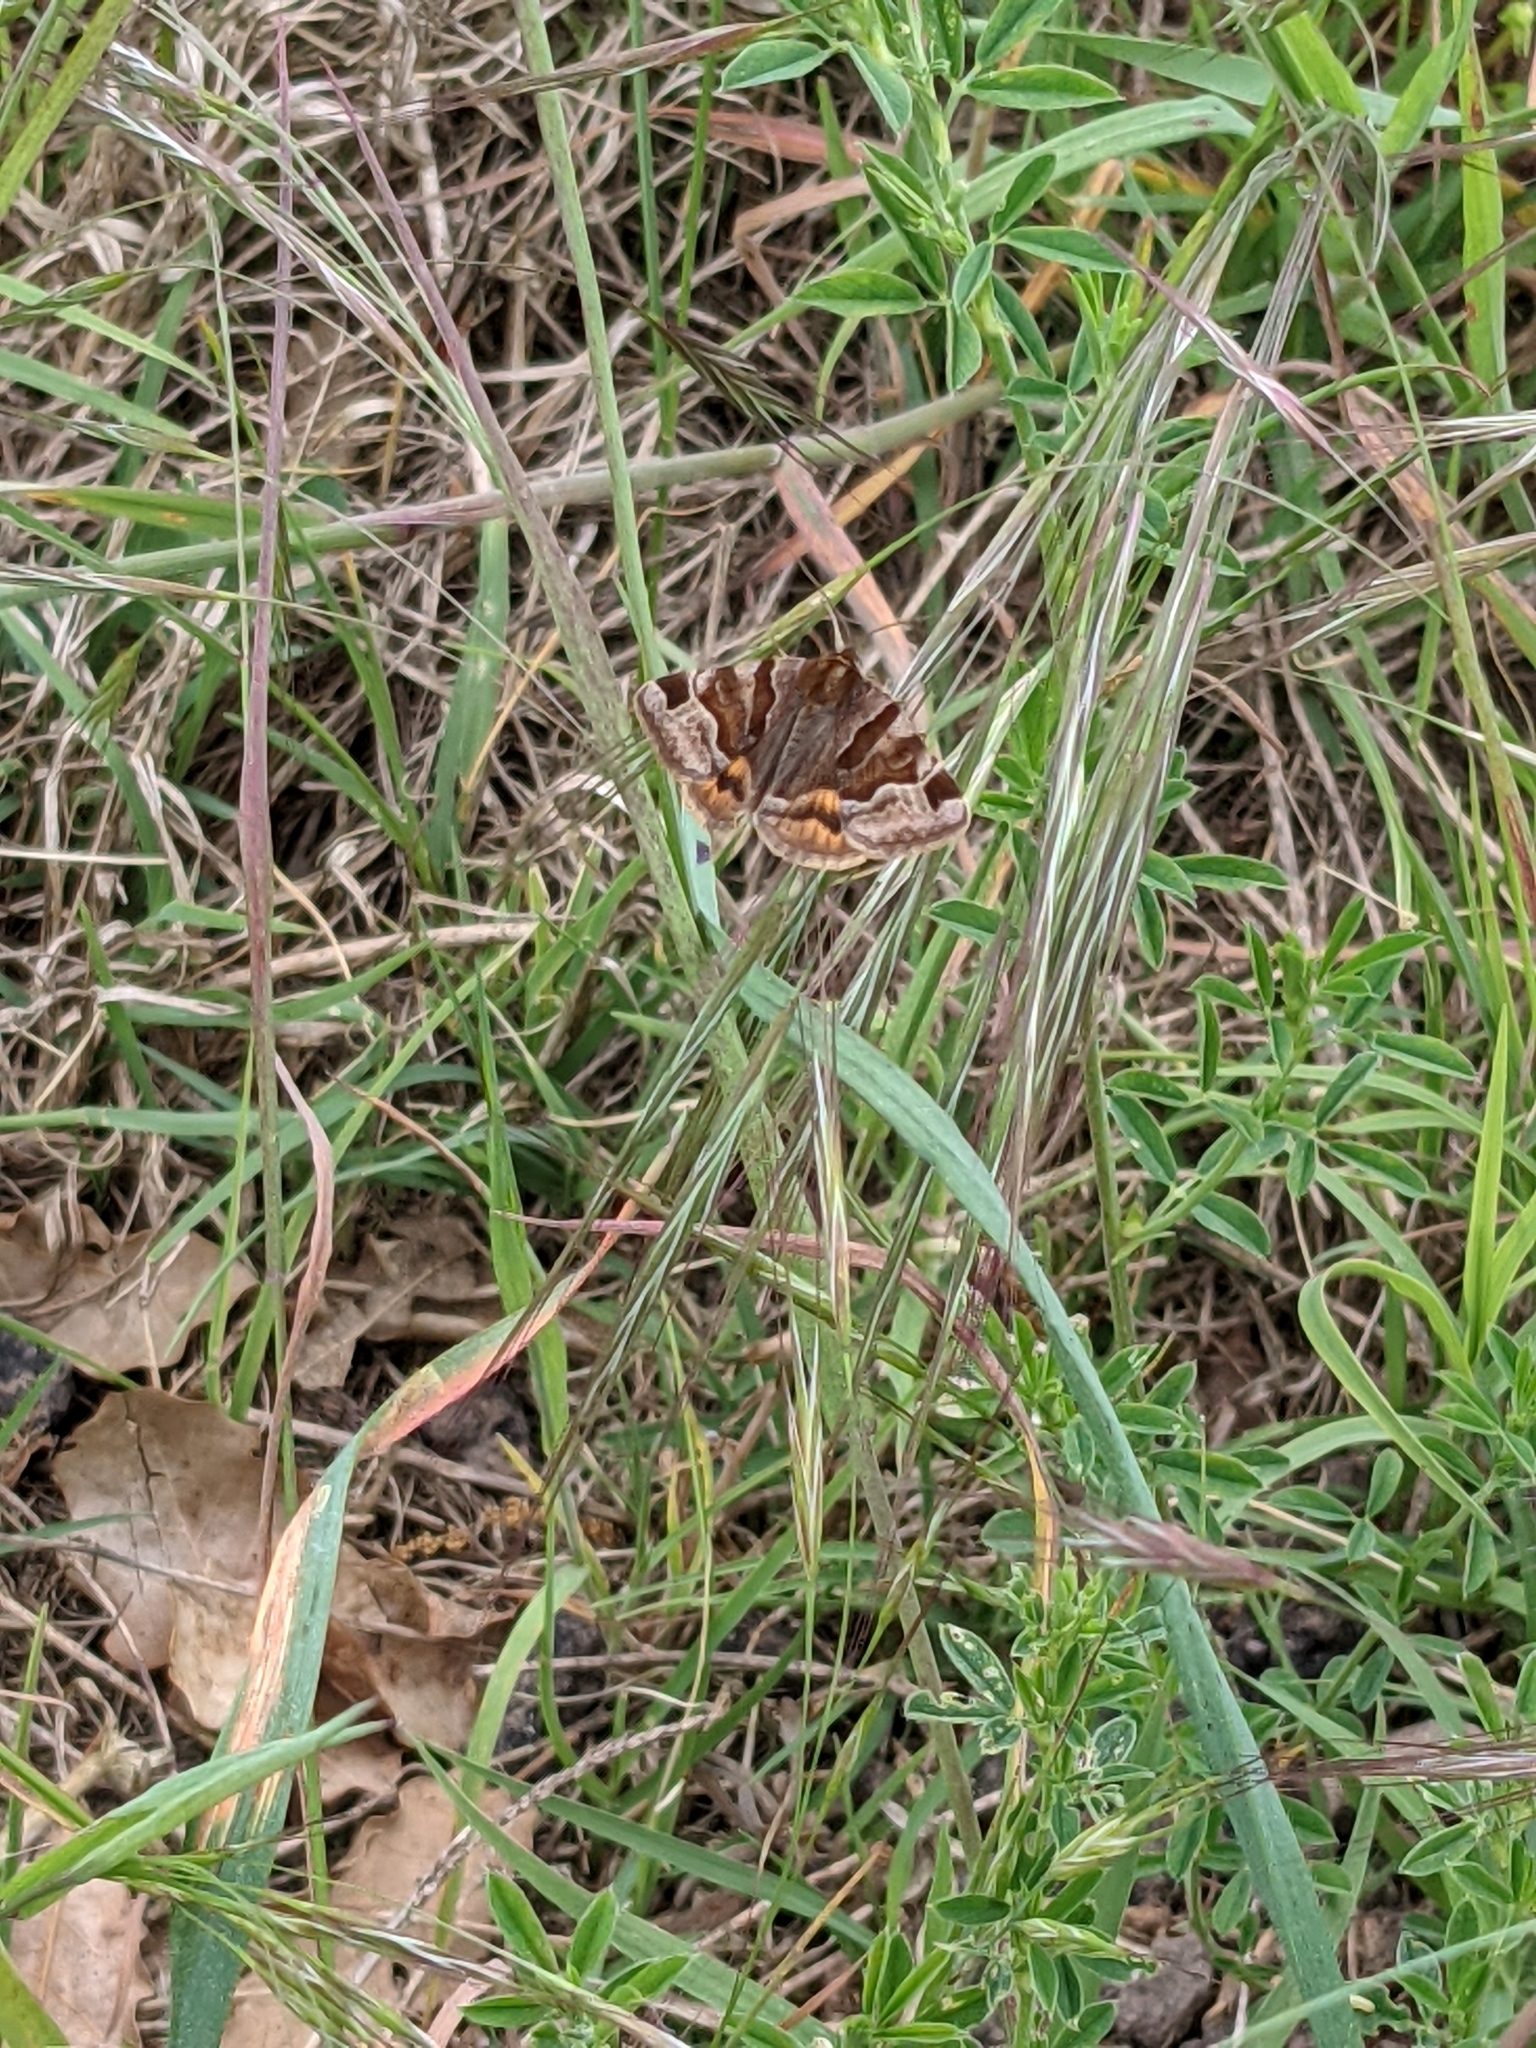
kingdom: Animalia
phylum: Arthropoda
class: Insecta
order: Lepidoptera
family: Erebidae
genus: Euclidia
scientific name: Euclidia glyphica
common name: Burnet companion
